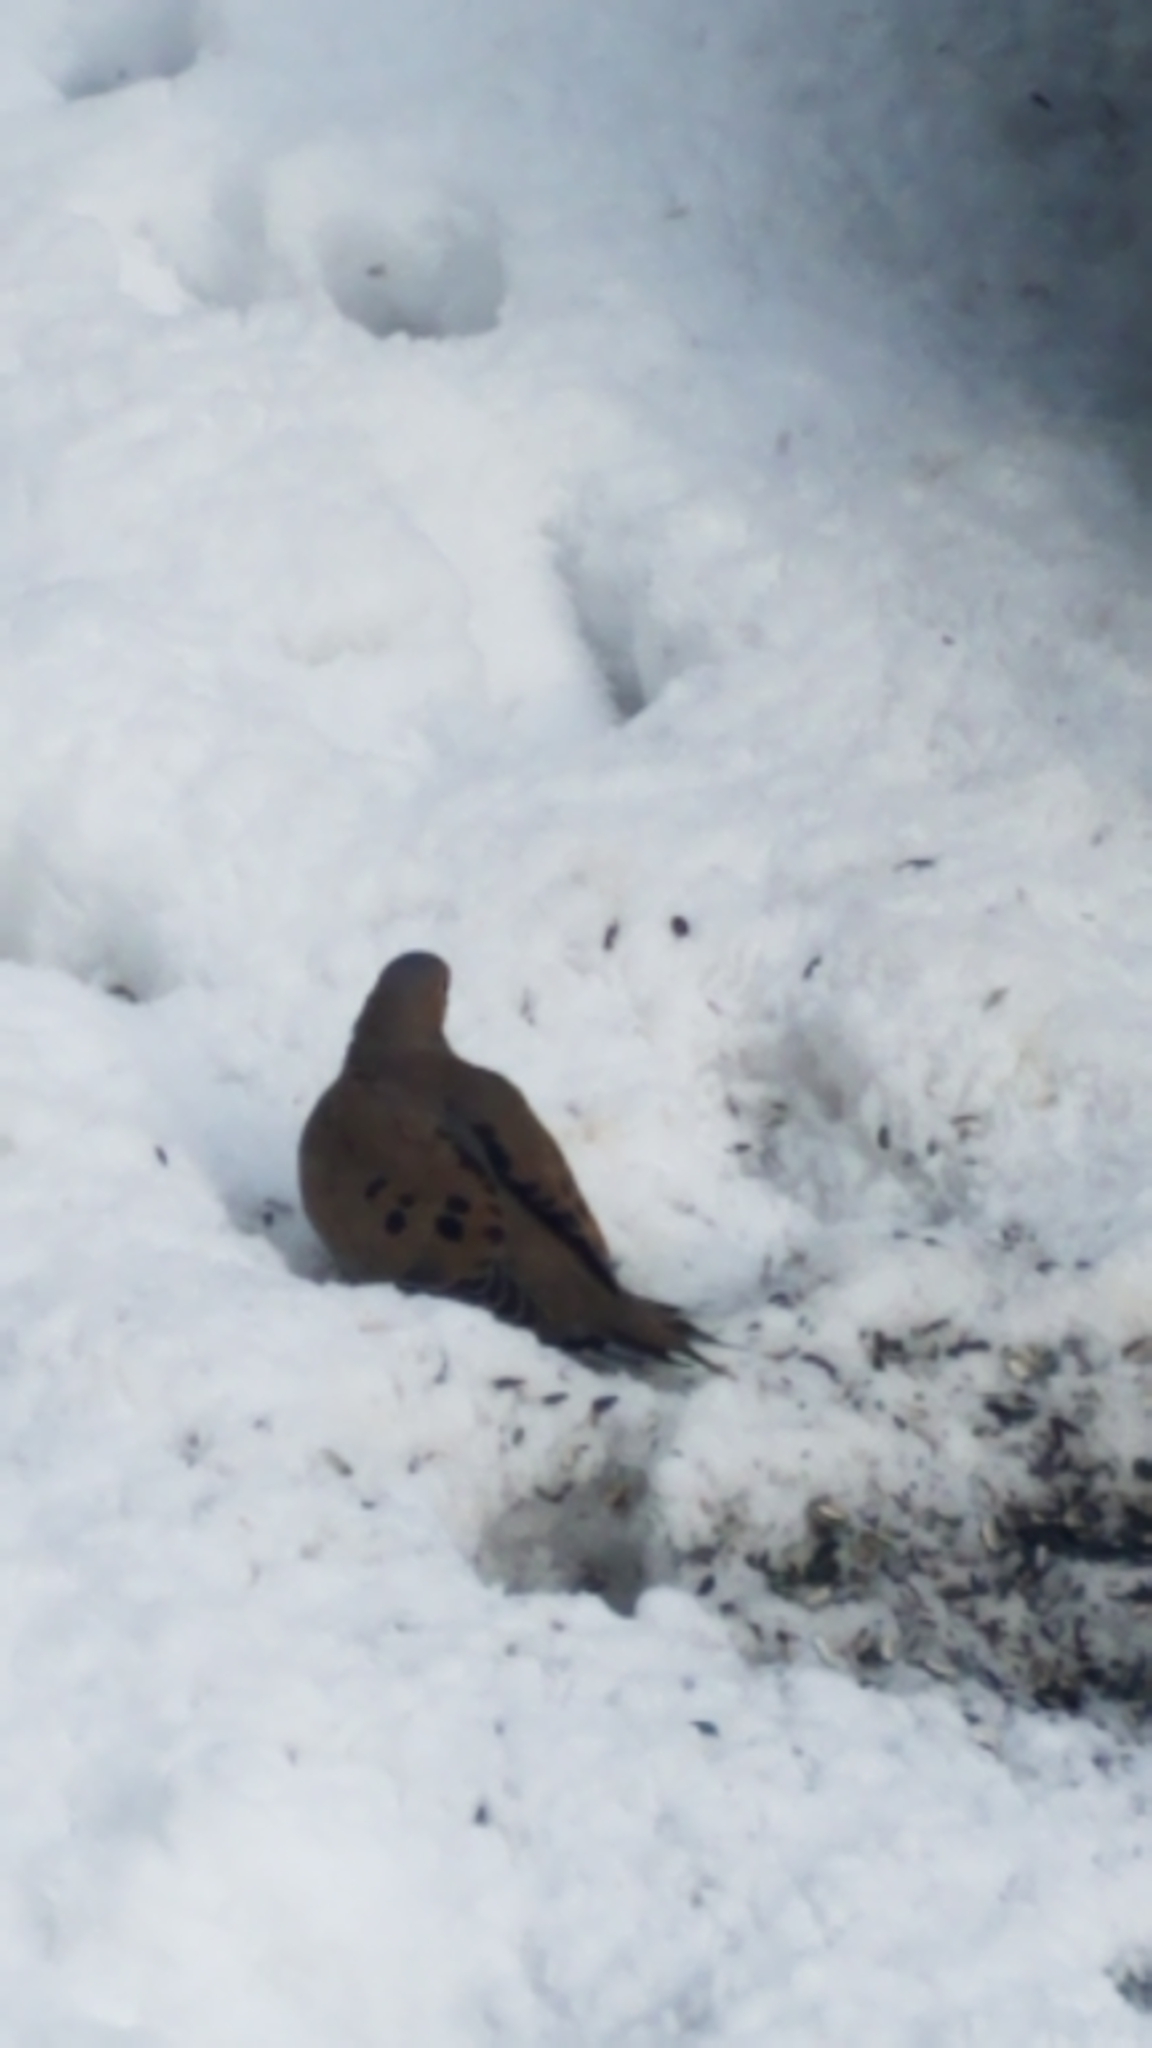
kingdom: Animalia
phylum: Chordata
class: Aves
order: Columbiformes
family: Columbidae
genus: Zenaida
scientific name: Zenaida macroura
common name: Mourning dove
